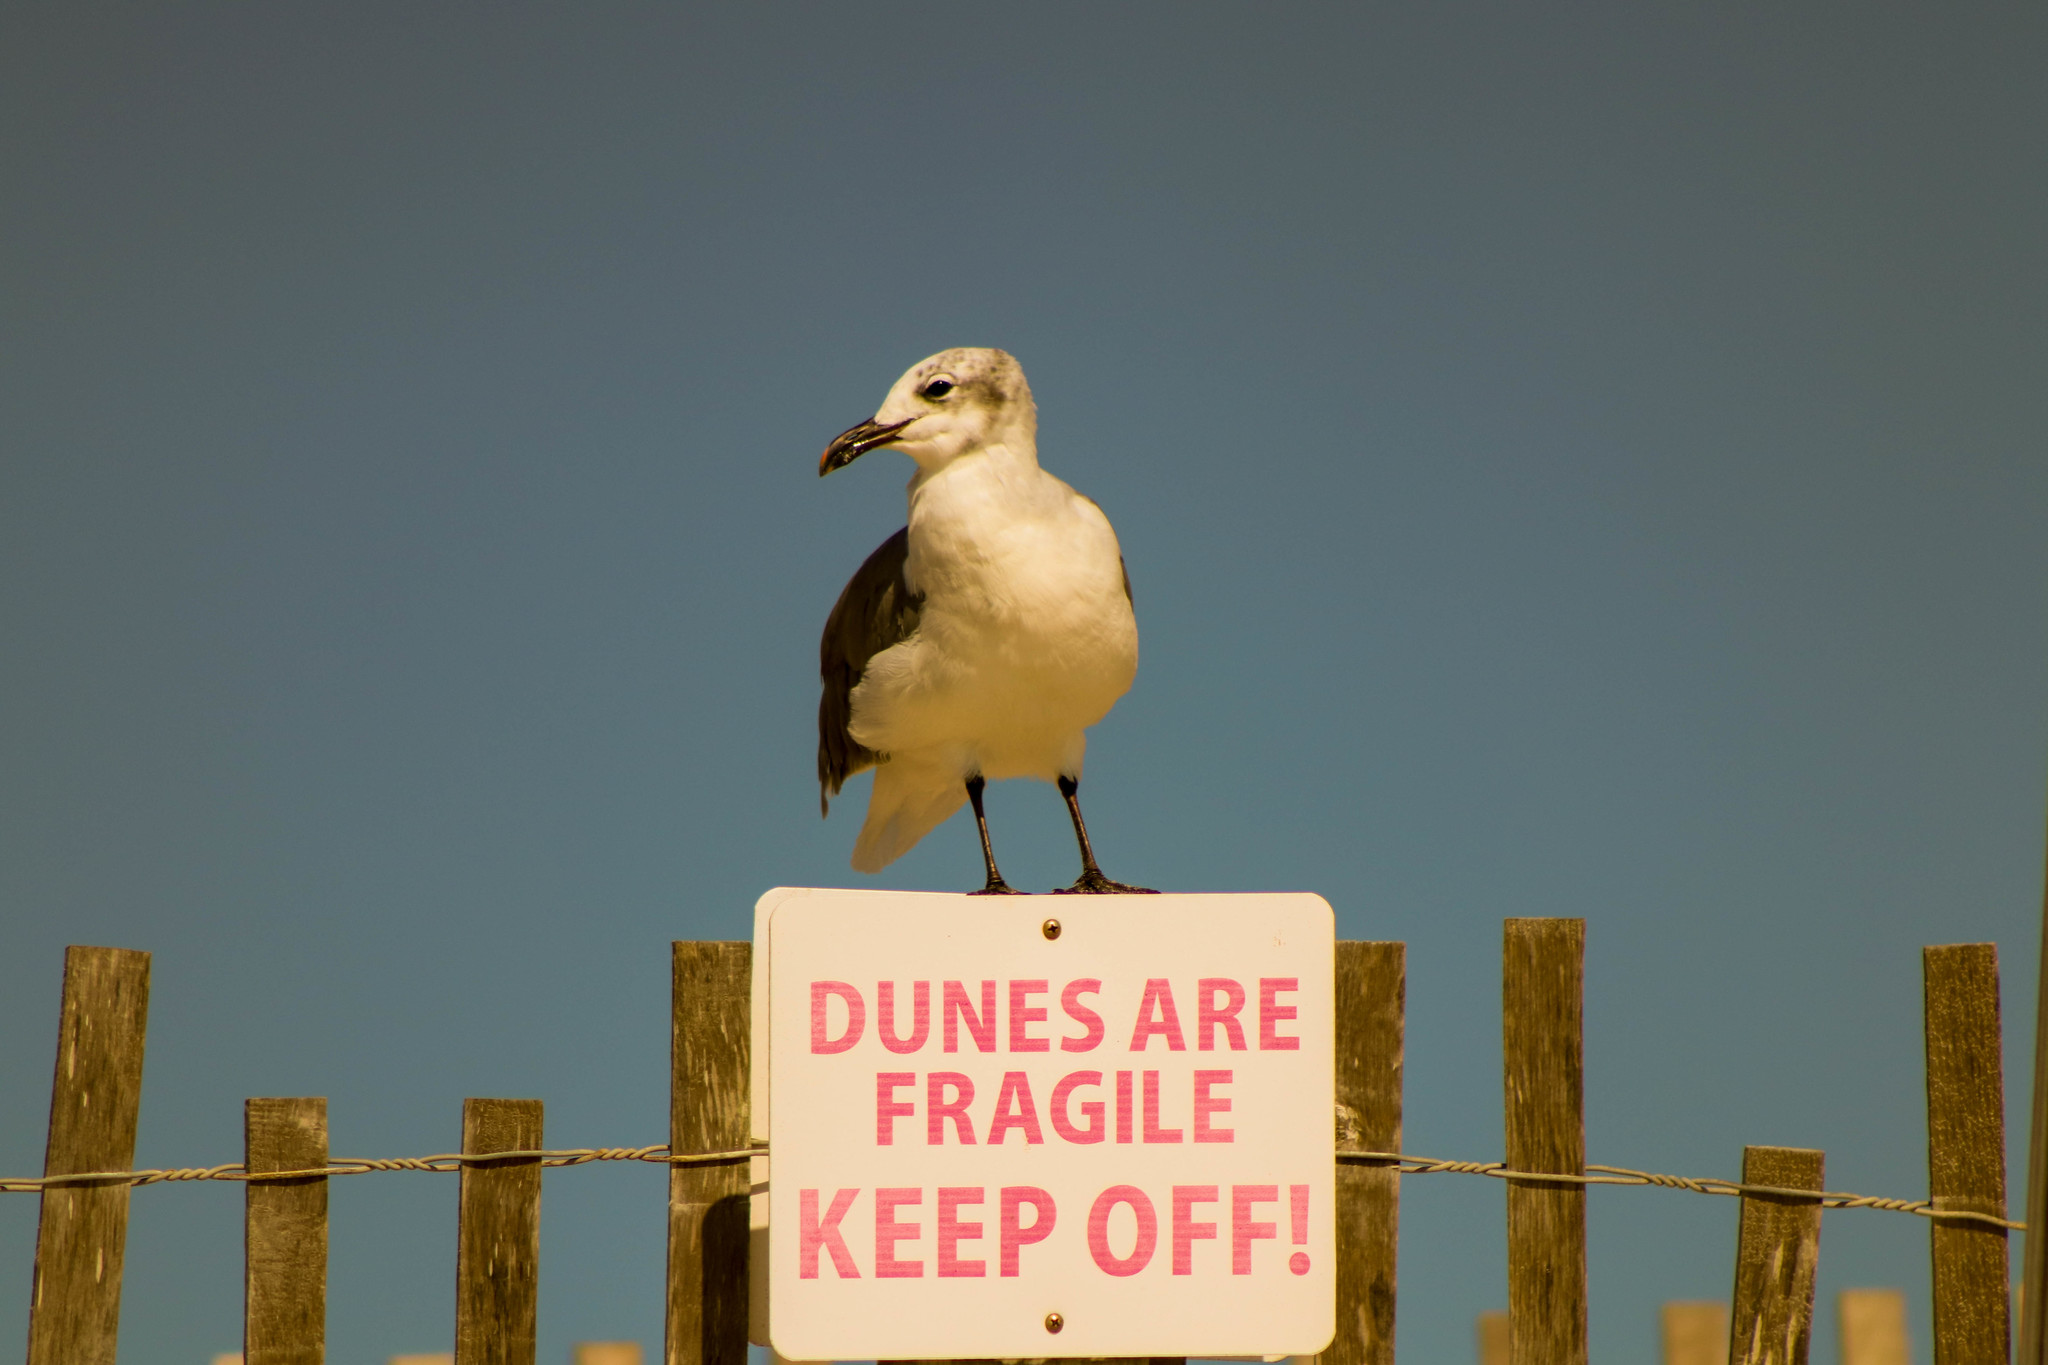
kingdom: Animalia
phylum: Chordata
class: Aves
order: Charadriiformes
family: Laridae
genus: Leucophaeus
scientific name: Leucophaeus atricilla
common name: Laughing gull
